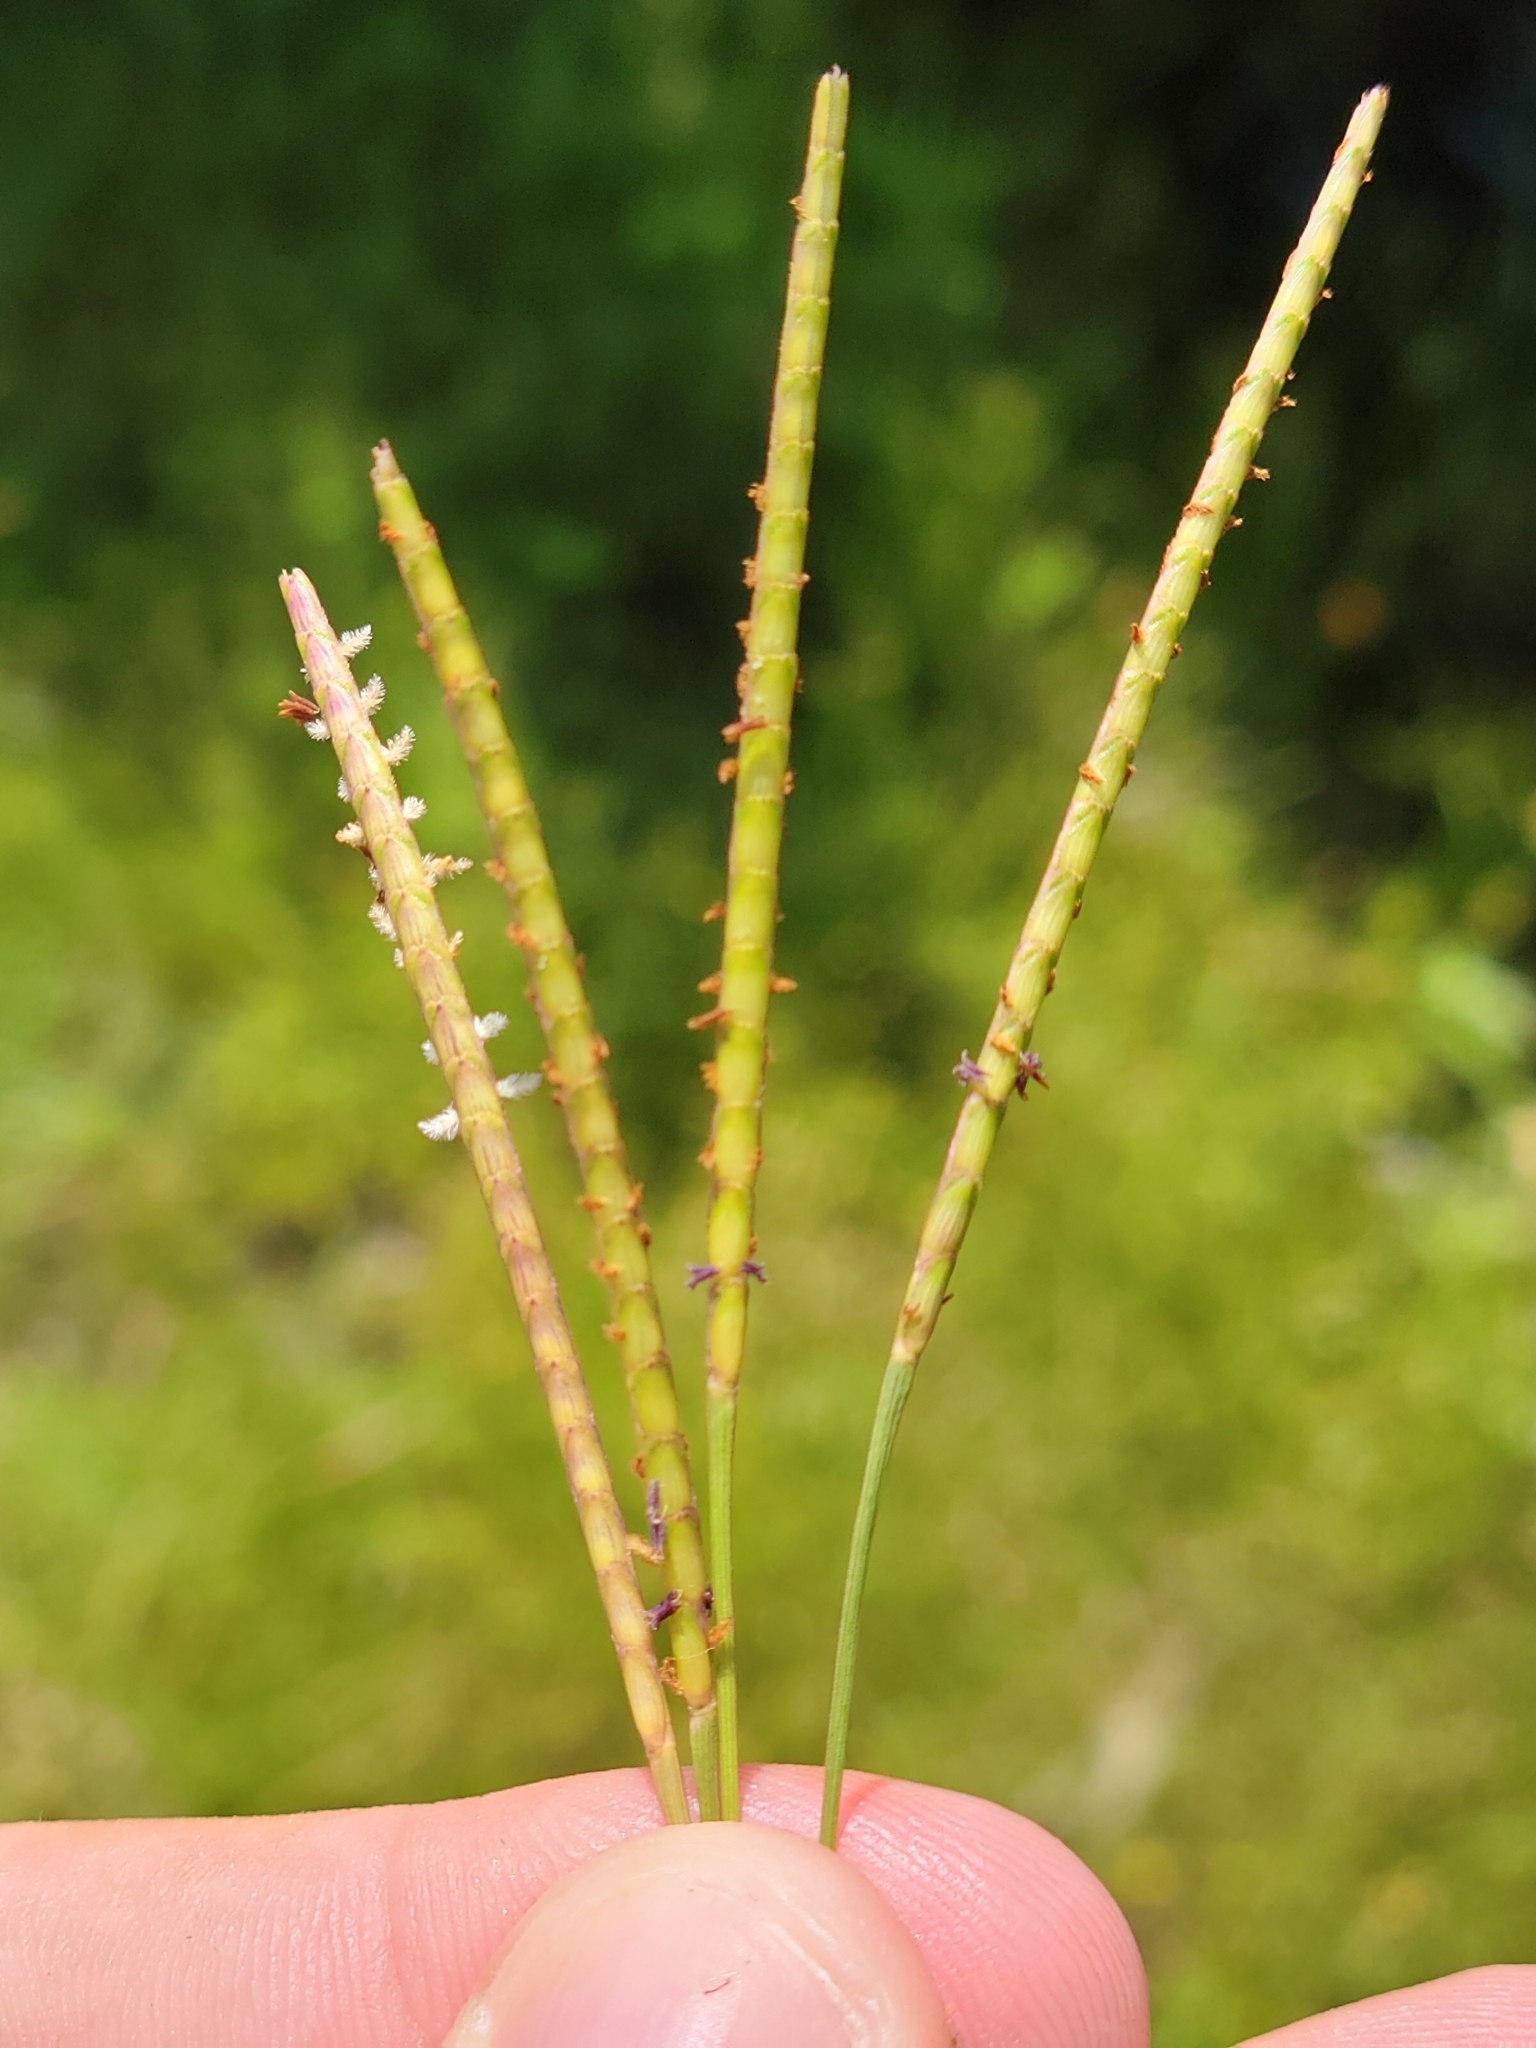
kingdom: Plantae
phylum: Tracheophyta
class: Liliopsida
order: Poales
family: Poaceae
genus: Eremochloa
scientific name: Eremochloa ophiuroides
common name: Centipede grass
